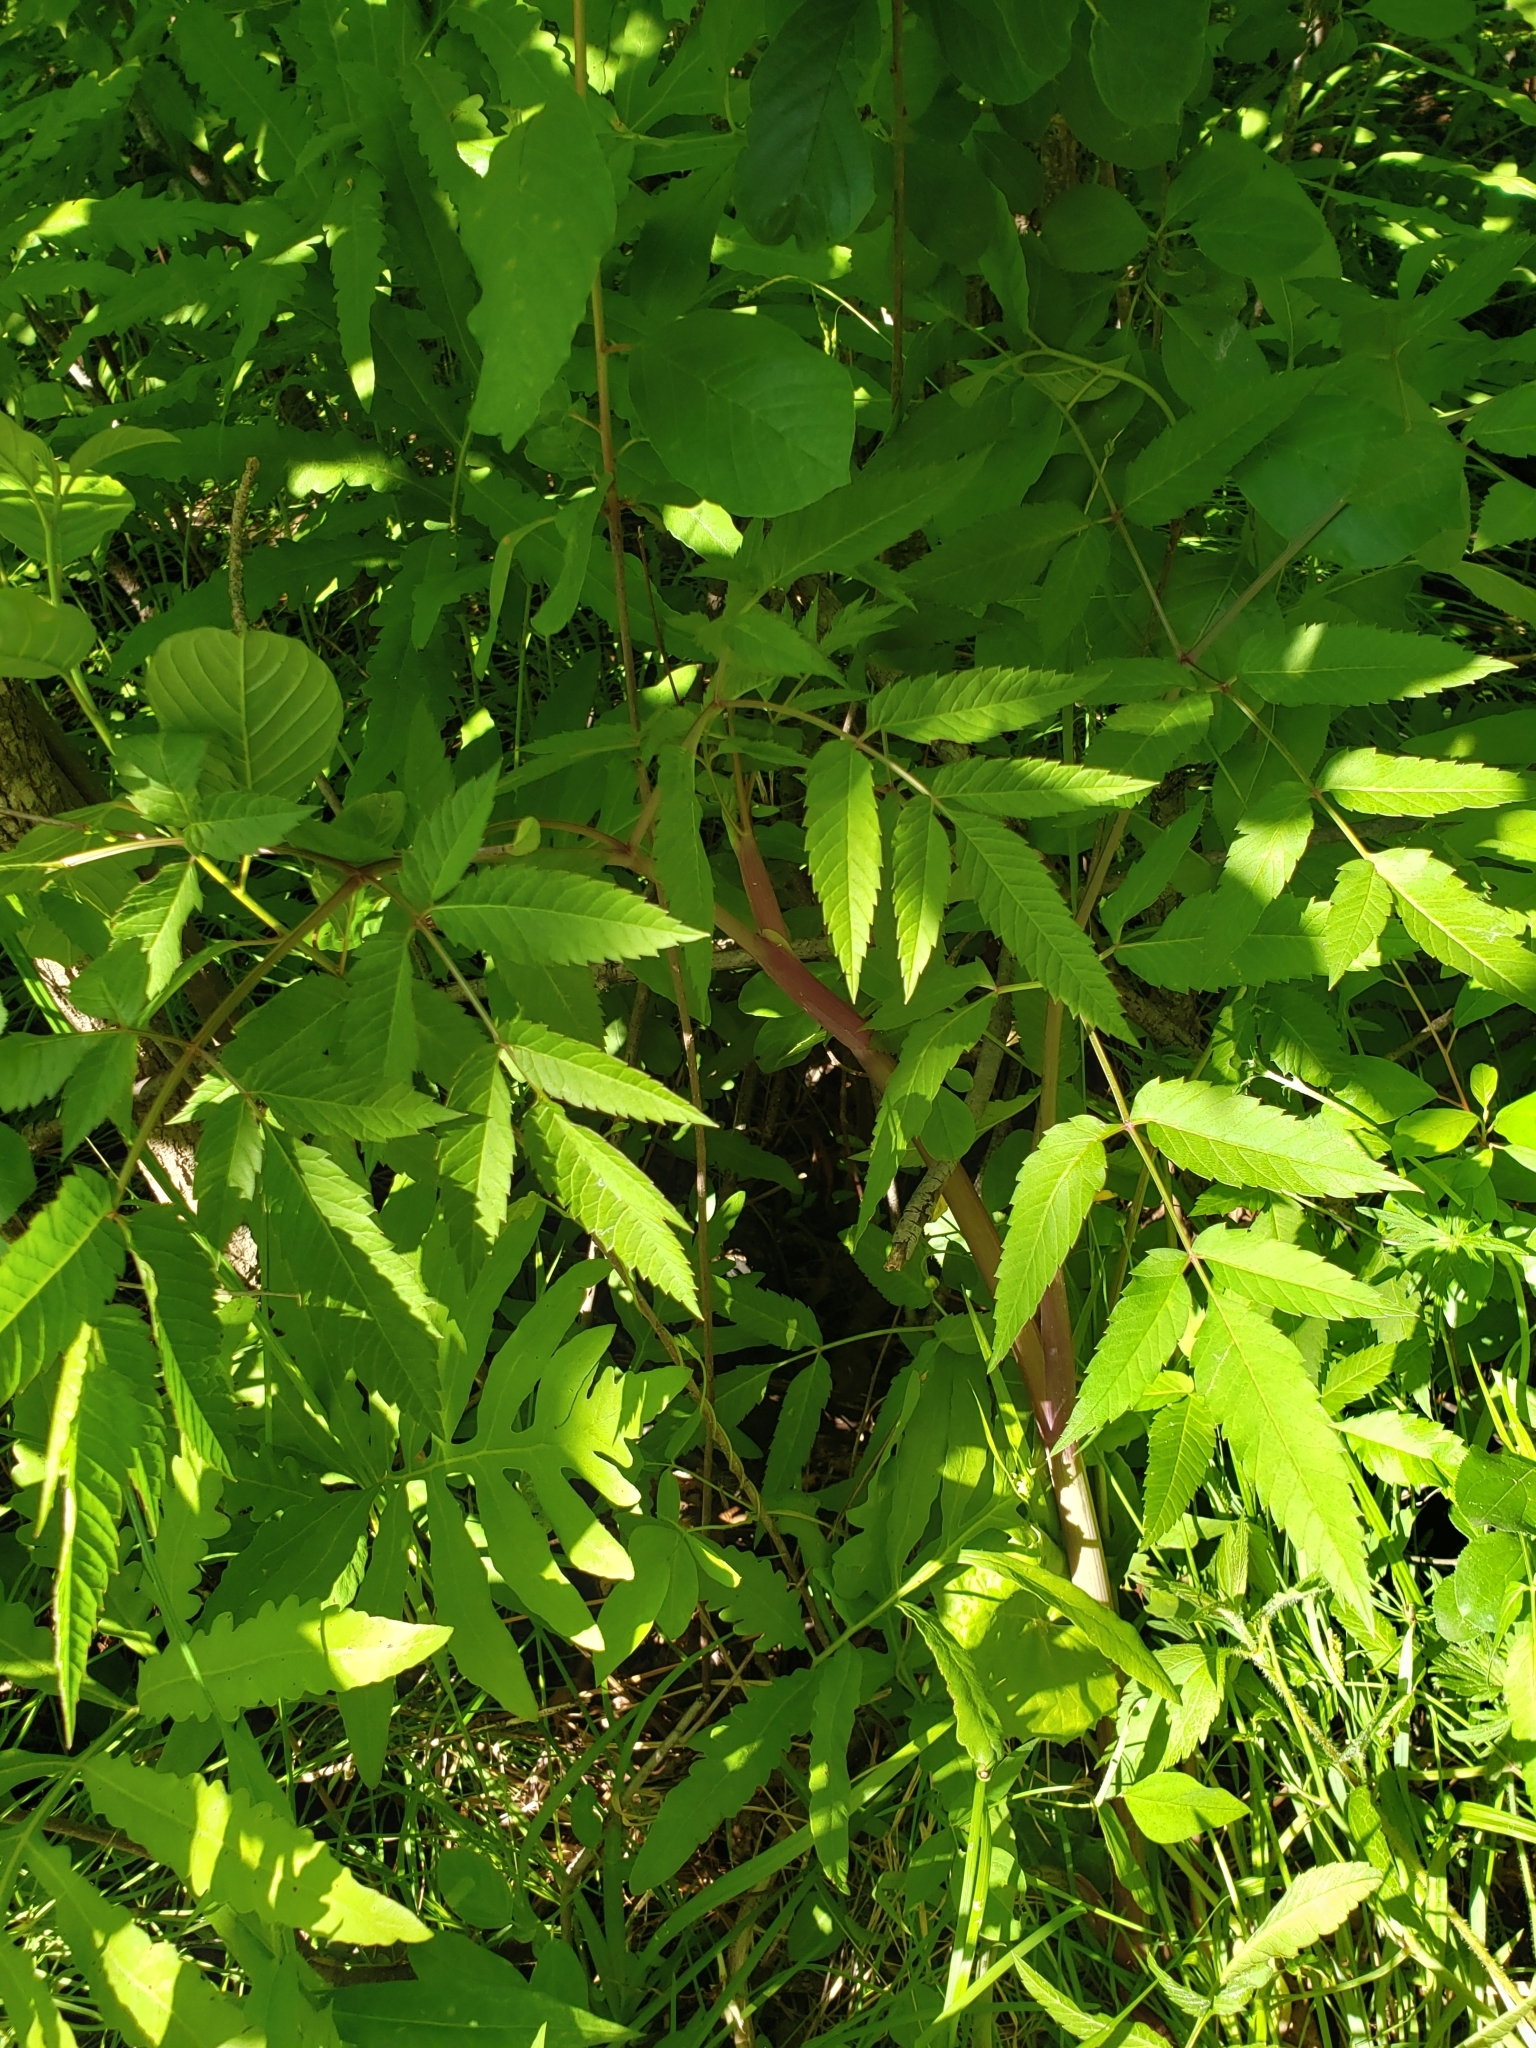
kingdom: Plantae
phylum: Tracheophyta
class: Magnoliopsida
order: Apiales
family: Apiaceae
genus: Cicuta
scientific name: Cicuta maculata
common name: Spotted cowbane
